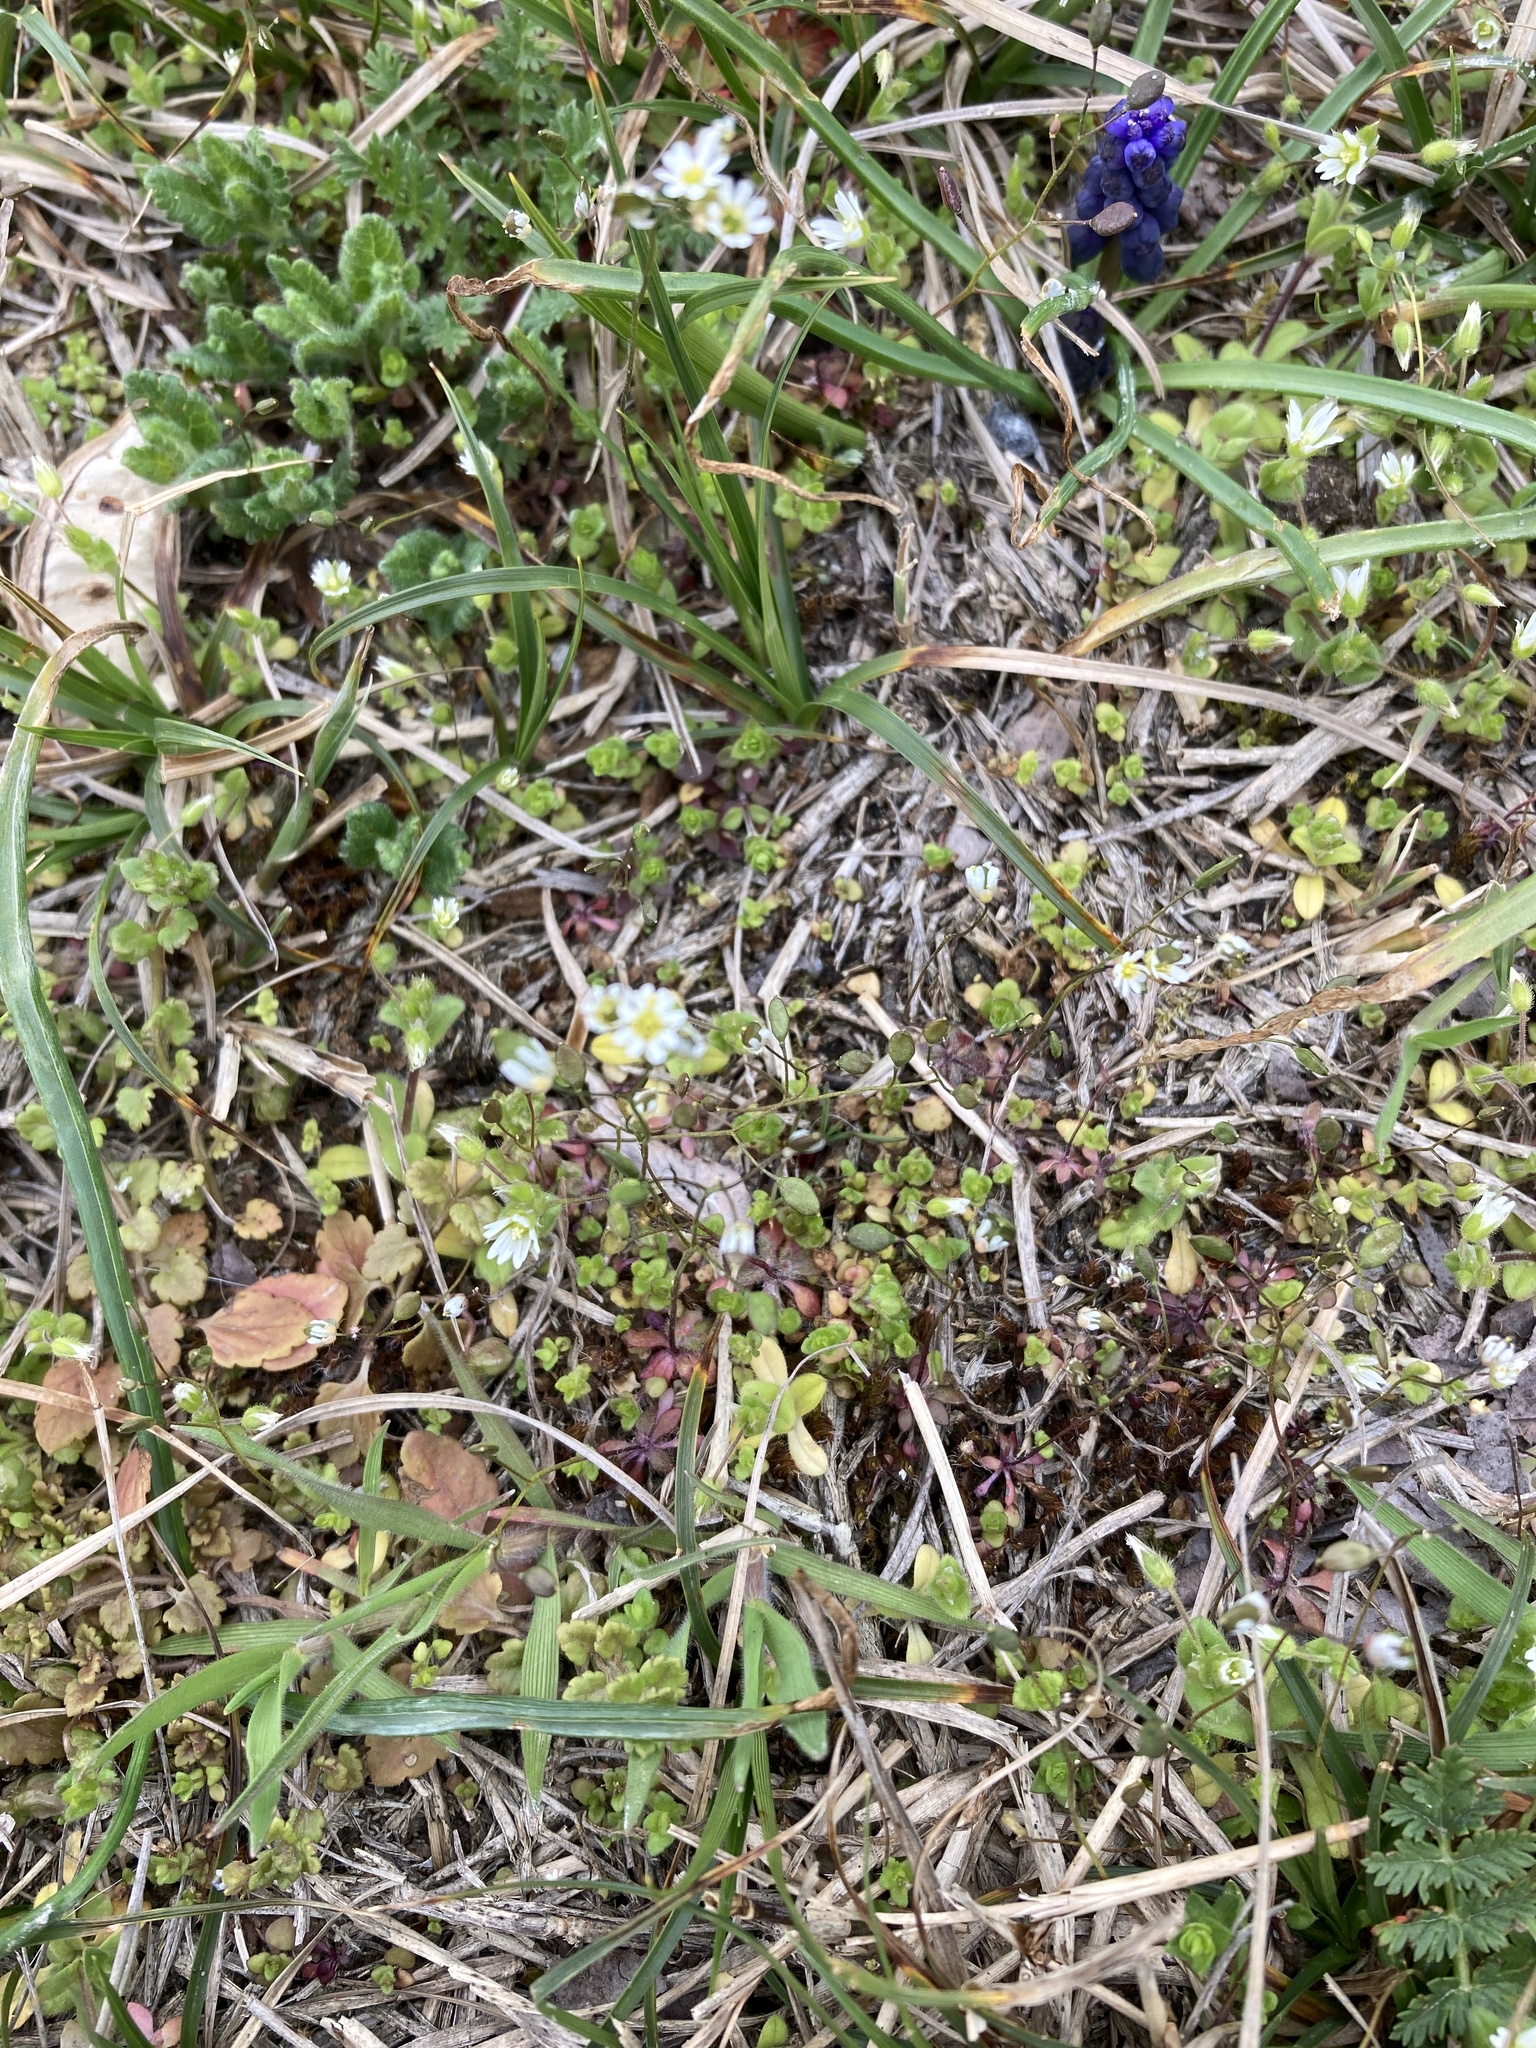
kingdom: Plantae
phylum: Tracheophyta
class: Magnoliopsida
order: Brassicales
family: Brassicaceae
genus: Draba
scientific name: Draba verna
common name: Spring draba
